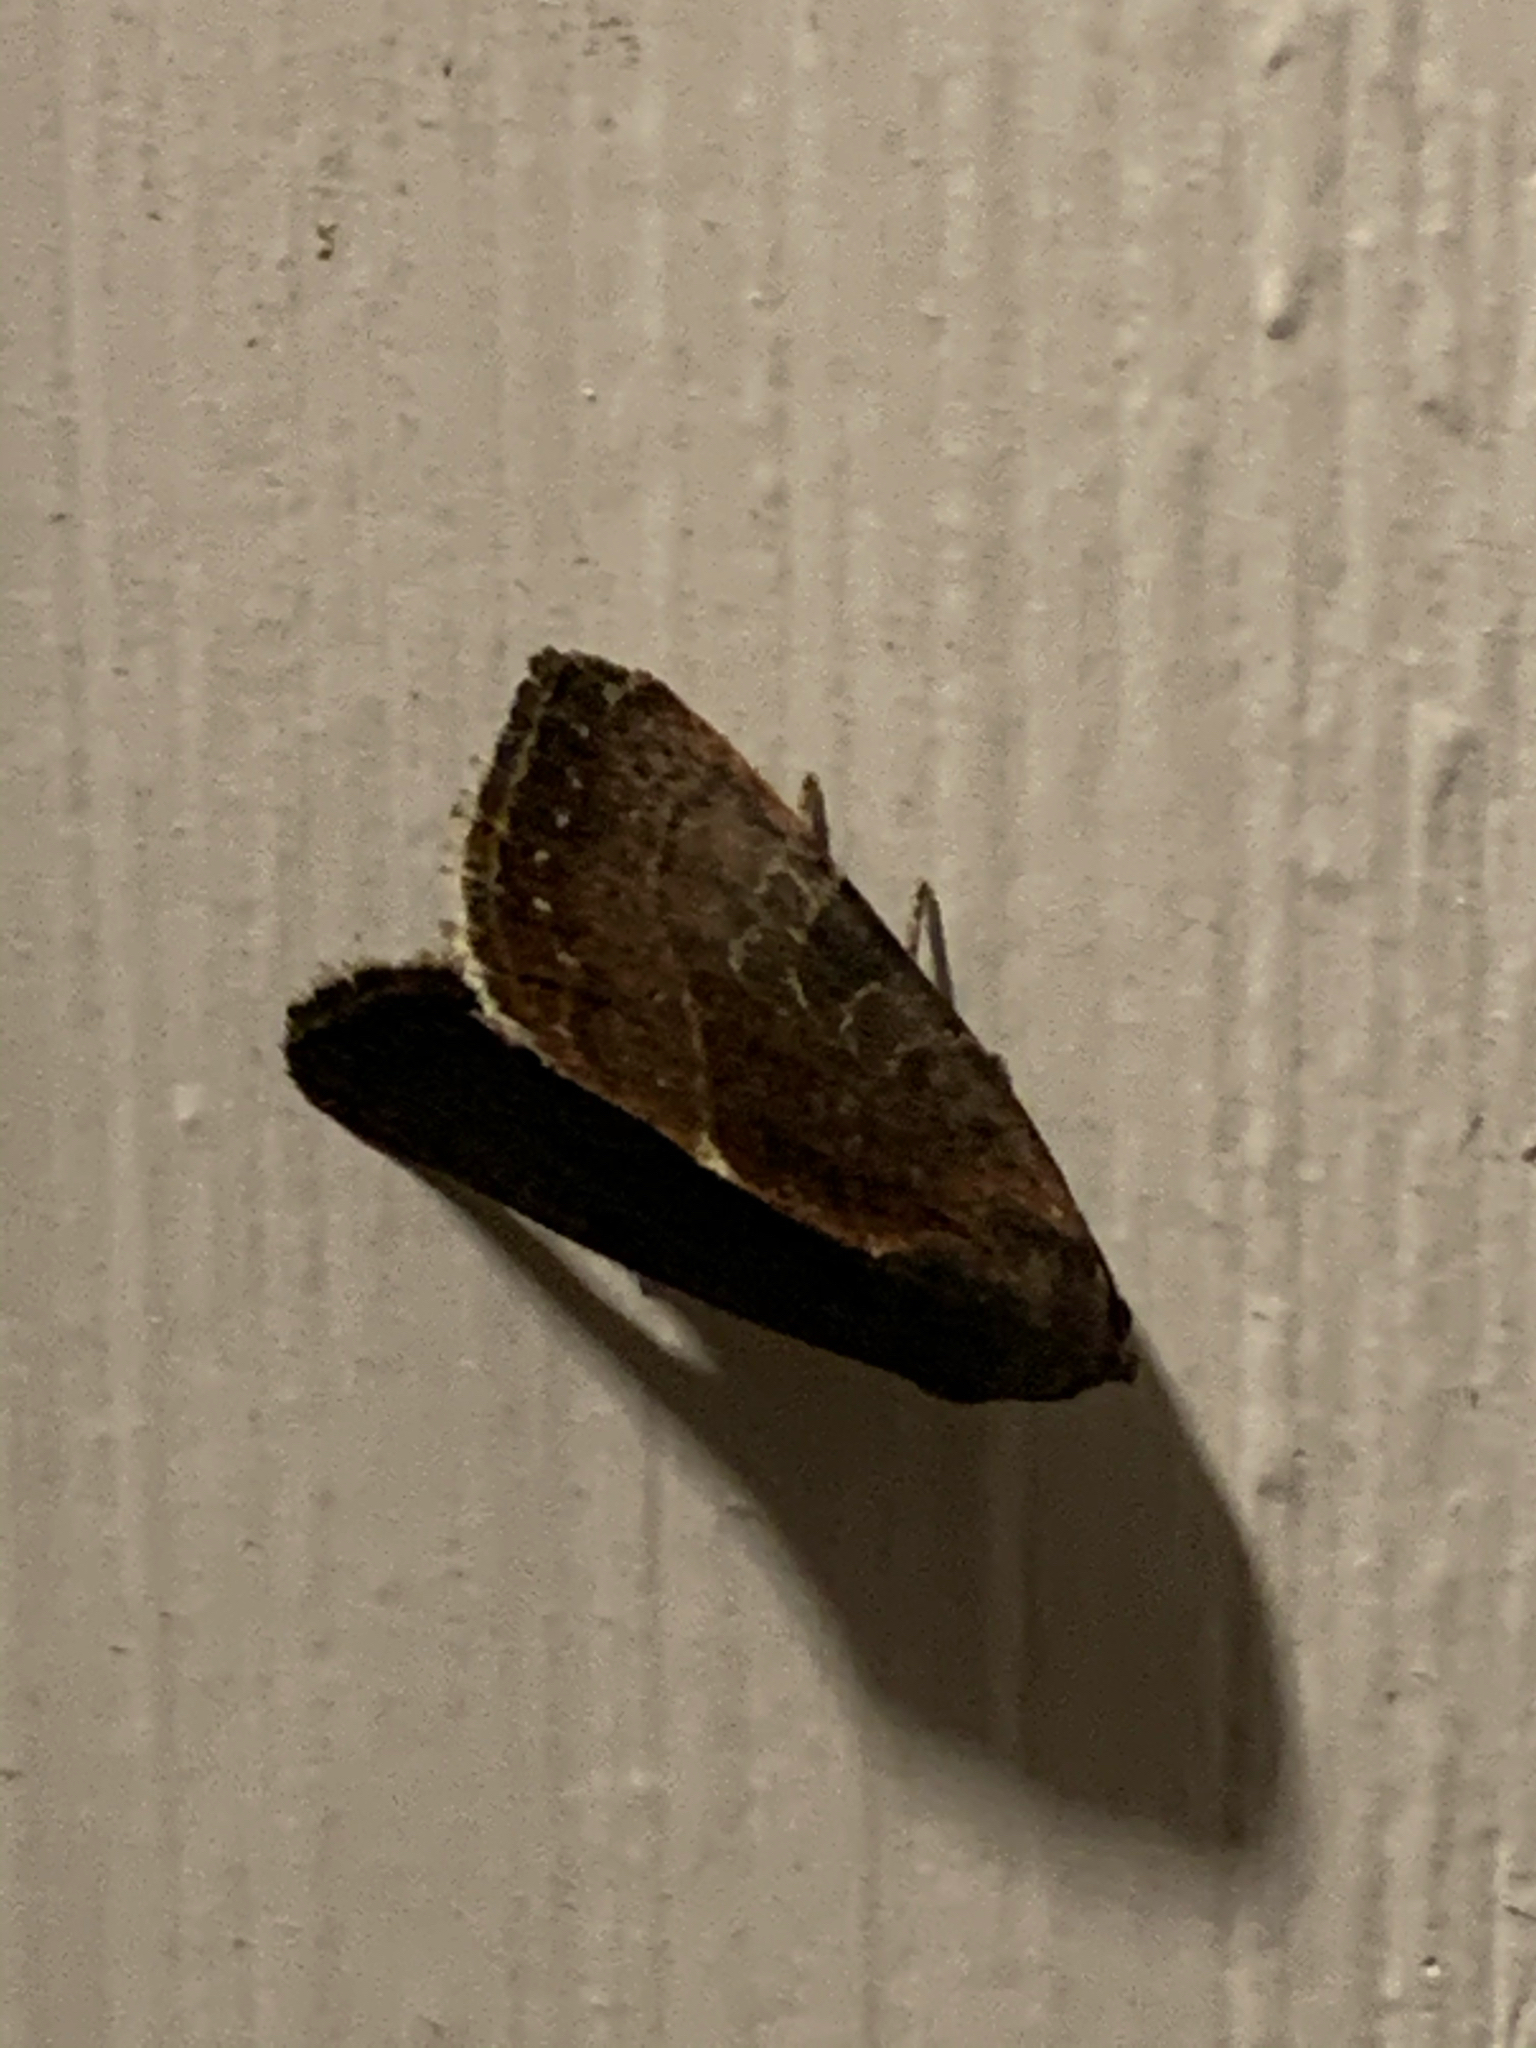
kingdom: Animalia
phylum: Arthropoda
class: Insecta
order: Lepidoptera
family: Noctuidae
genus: Galgula
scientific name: Galgula partita
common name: Wedgeling
